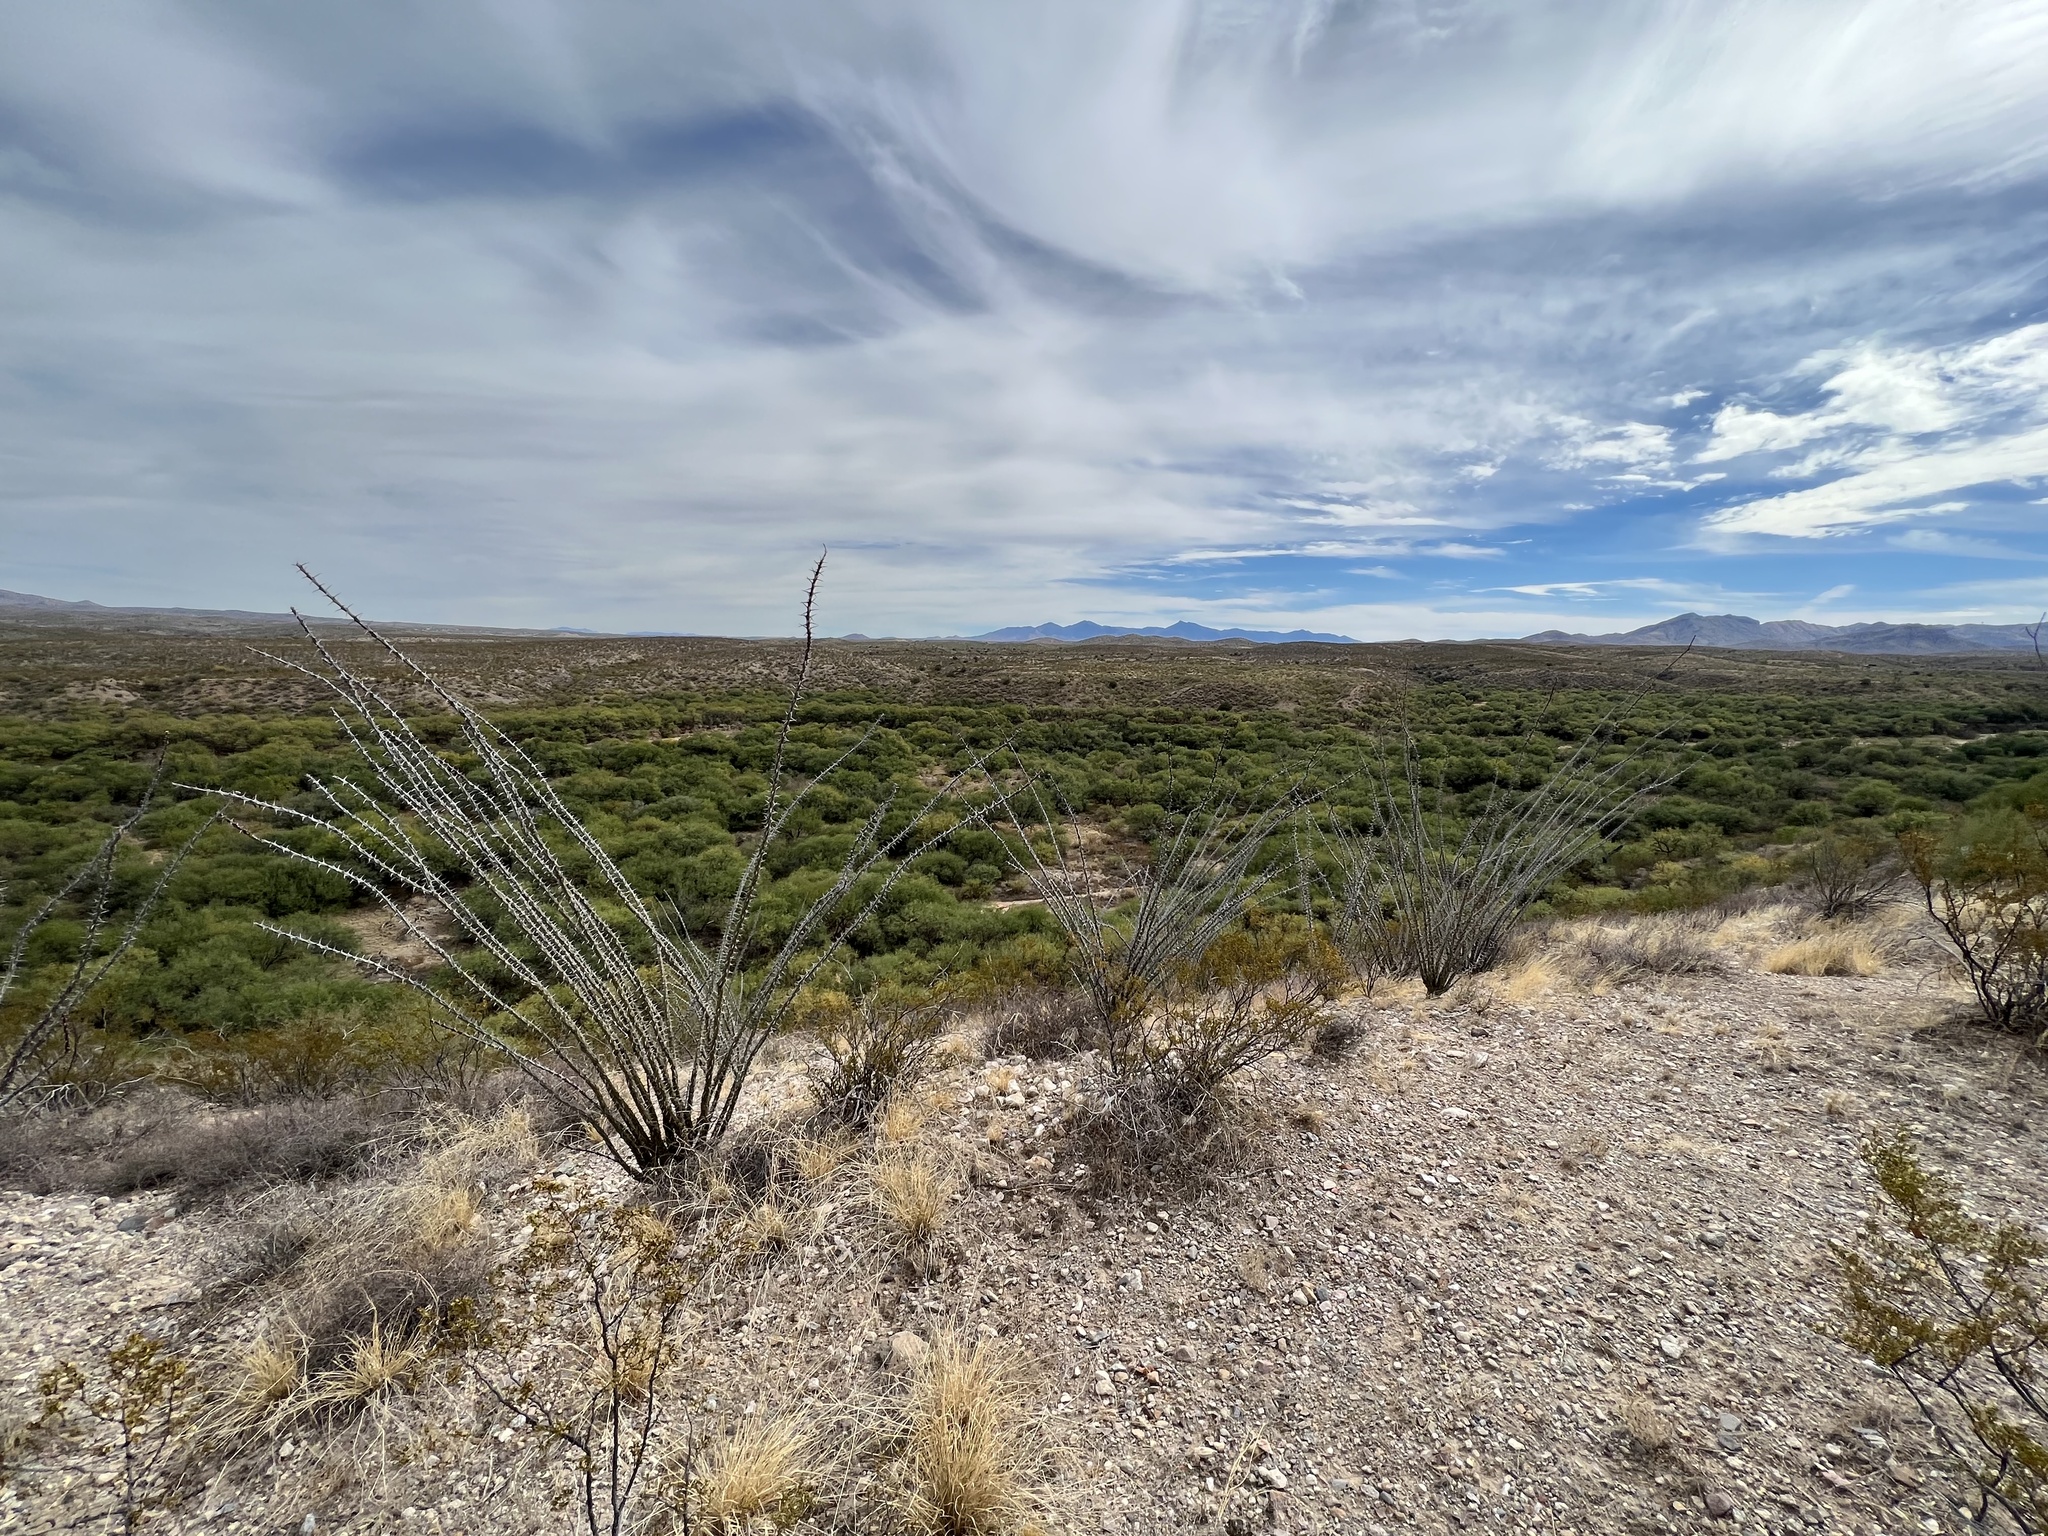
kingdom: Plantae
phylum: Tracheophyta
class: Magnoliopsida
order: Ericales
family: Fouquieriaceae
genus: Fouquieria
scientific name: Fouquieria splendens
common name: Vine-cactus
